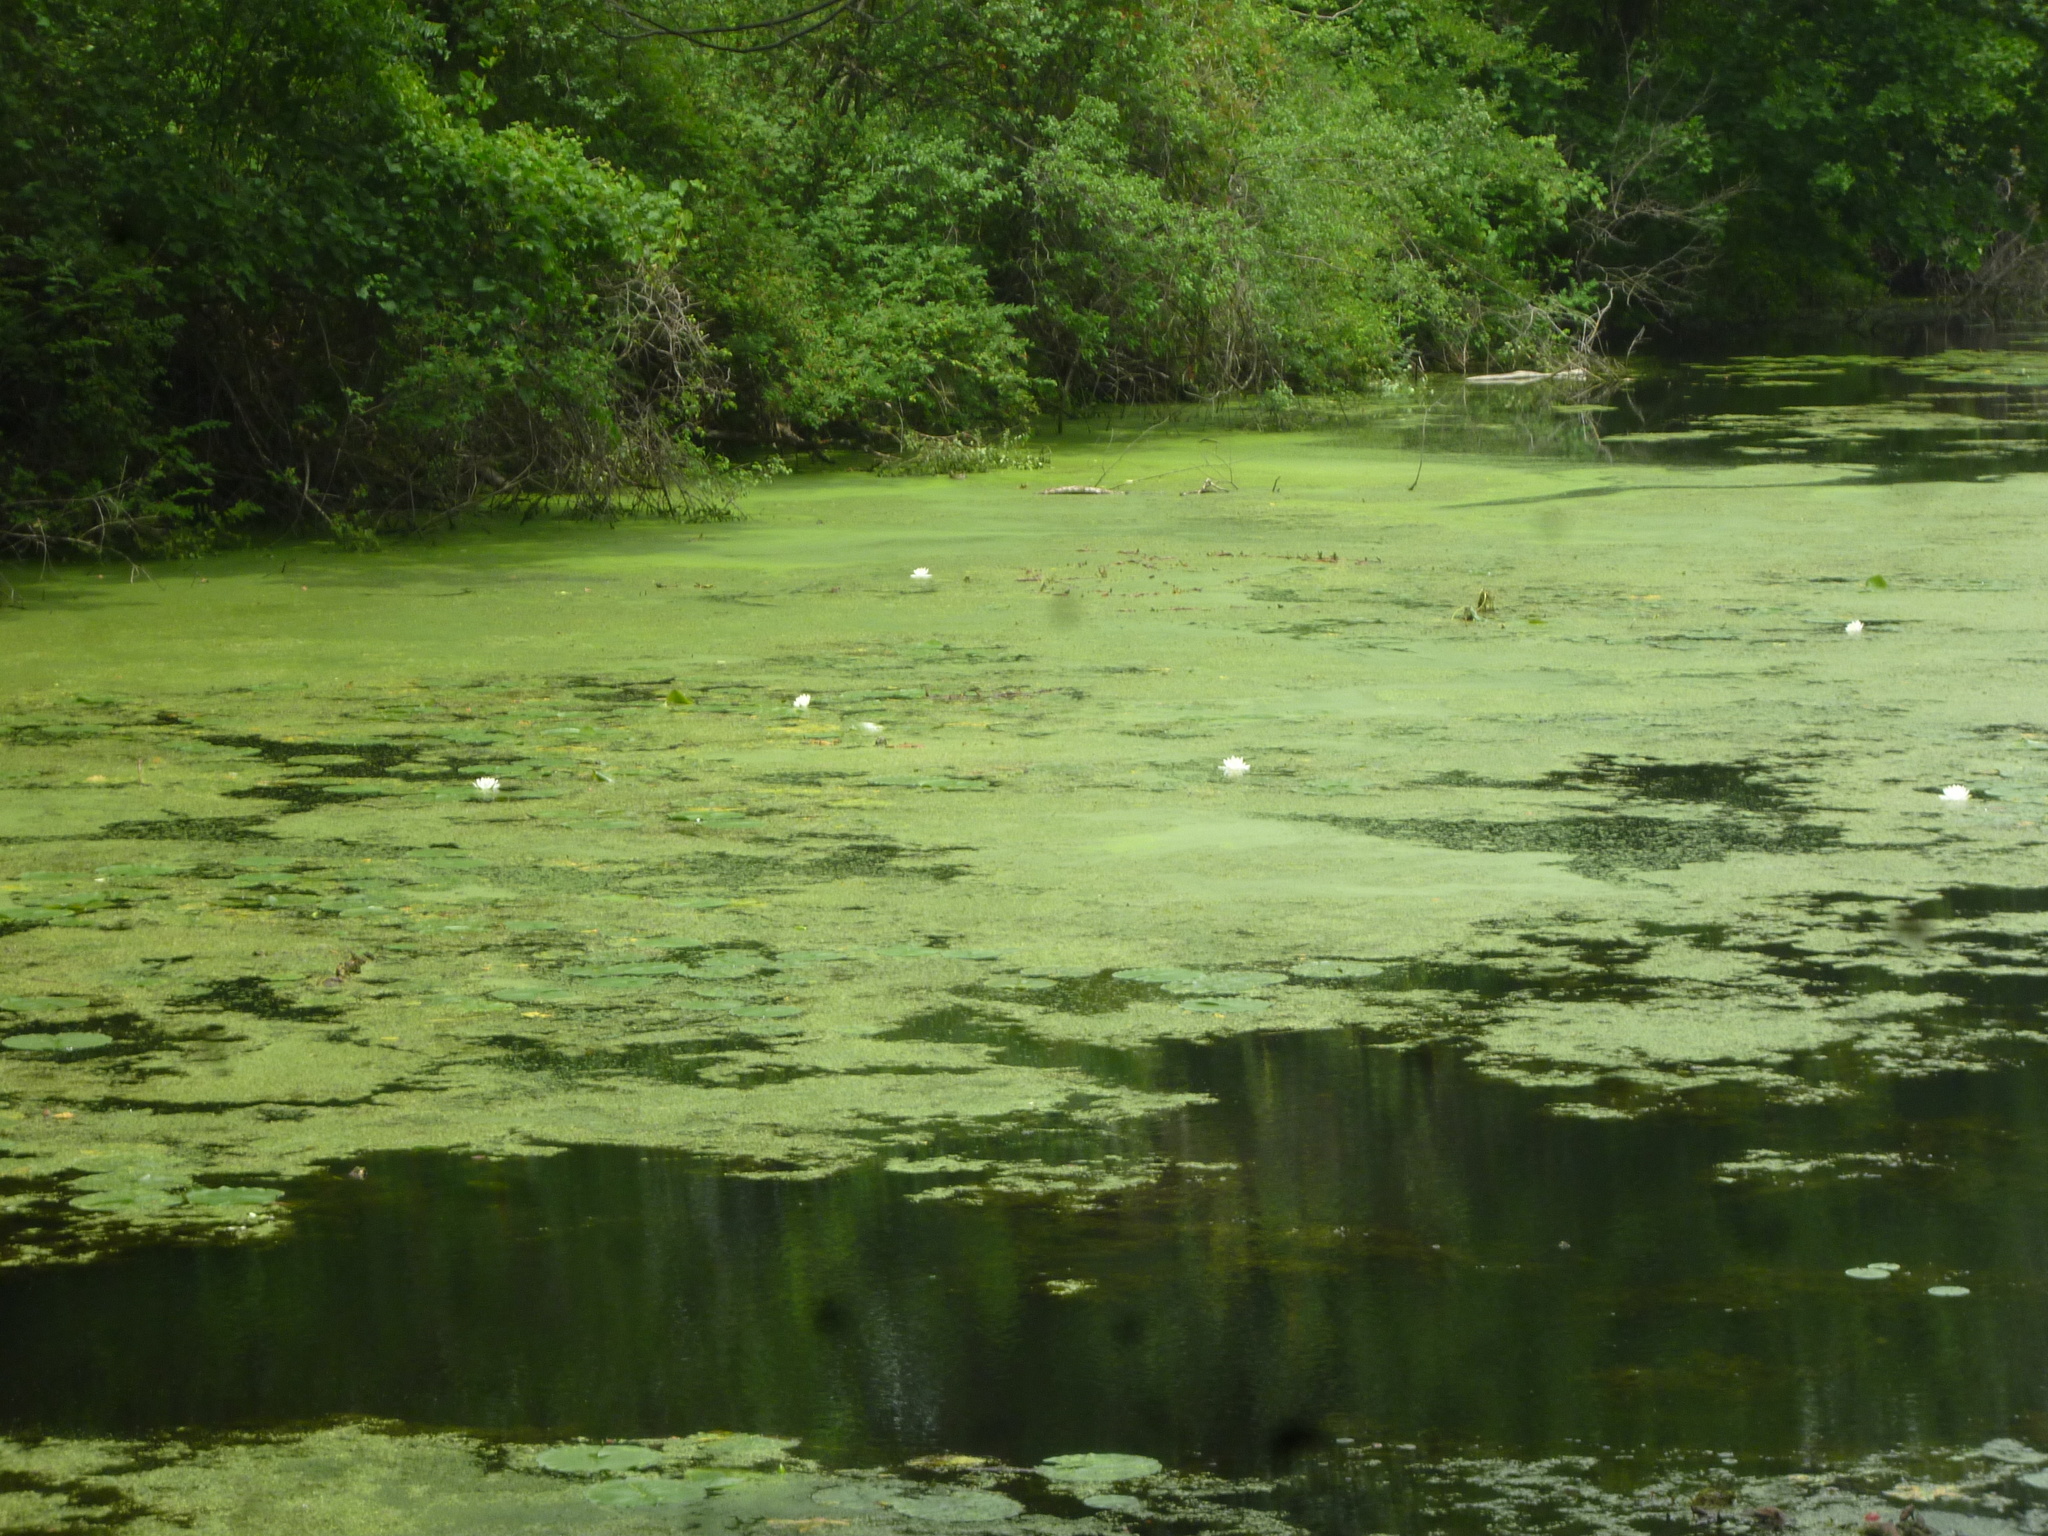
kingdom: Plantae
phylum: Tracheophyta
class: Magnoliopsida
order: Nymphaeales
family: Nymphaeaceae
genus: Nymphaea
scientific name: Nymphaea odorata
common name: Fragrant water-lily
